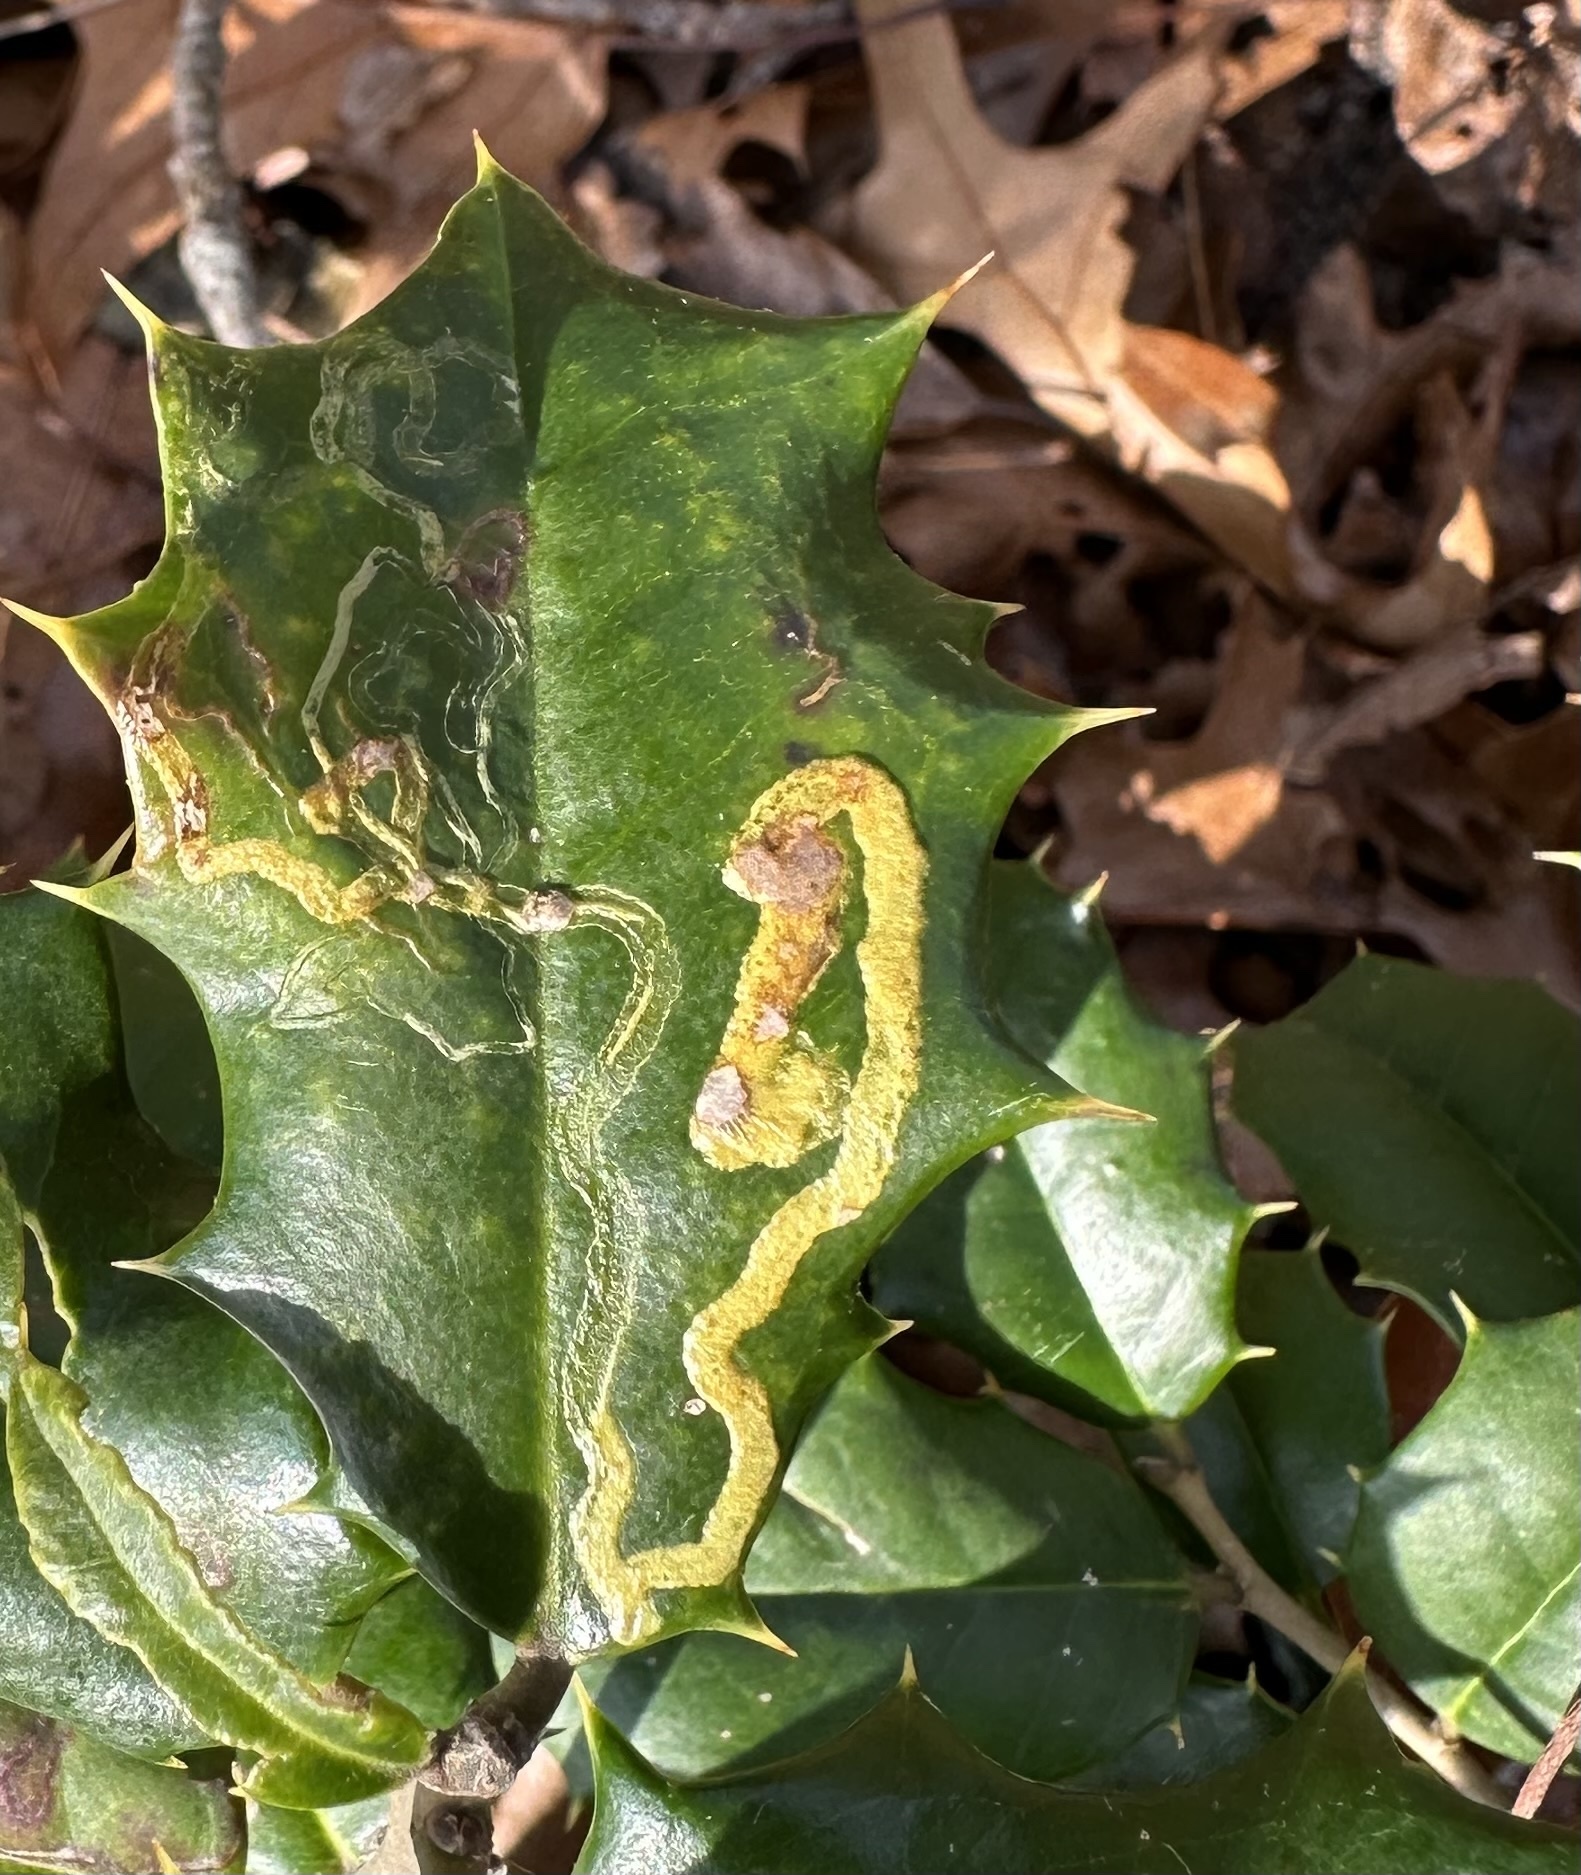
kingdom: Animalia
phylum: Arthropoda
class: Insecta
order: Diptera
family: Agromyzidae
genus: Phytomyza
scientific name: Phytomyza opacae
